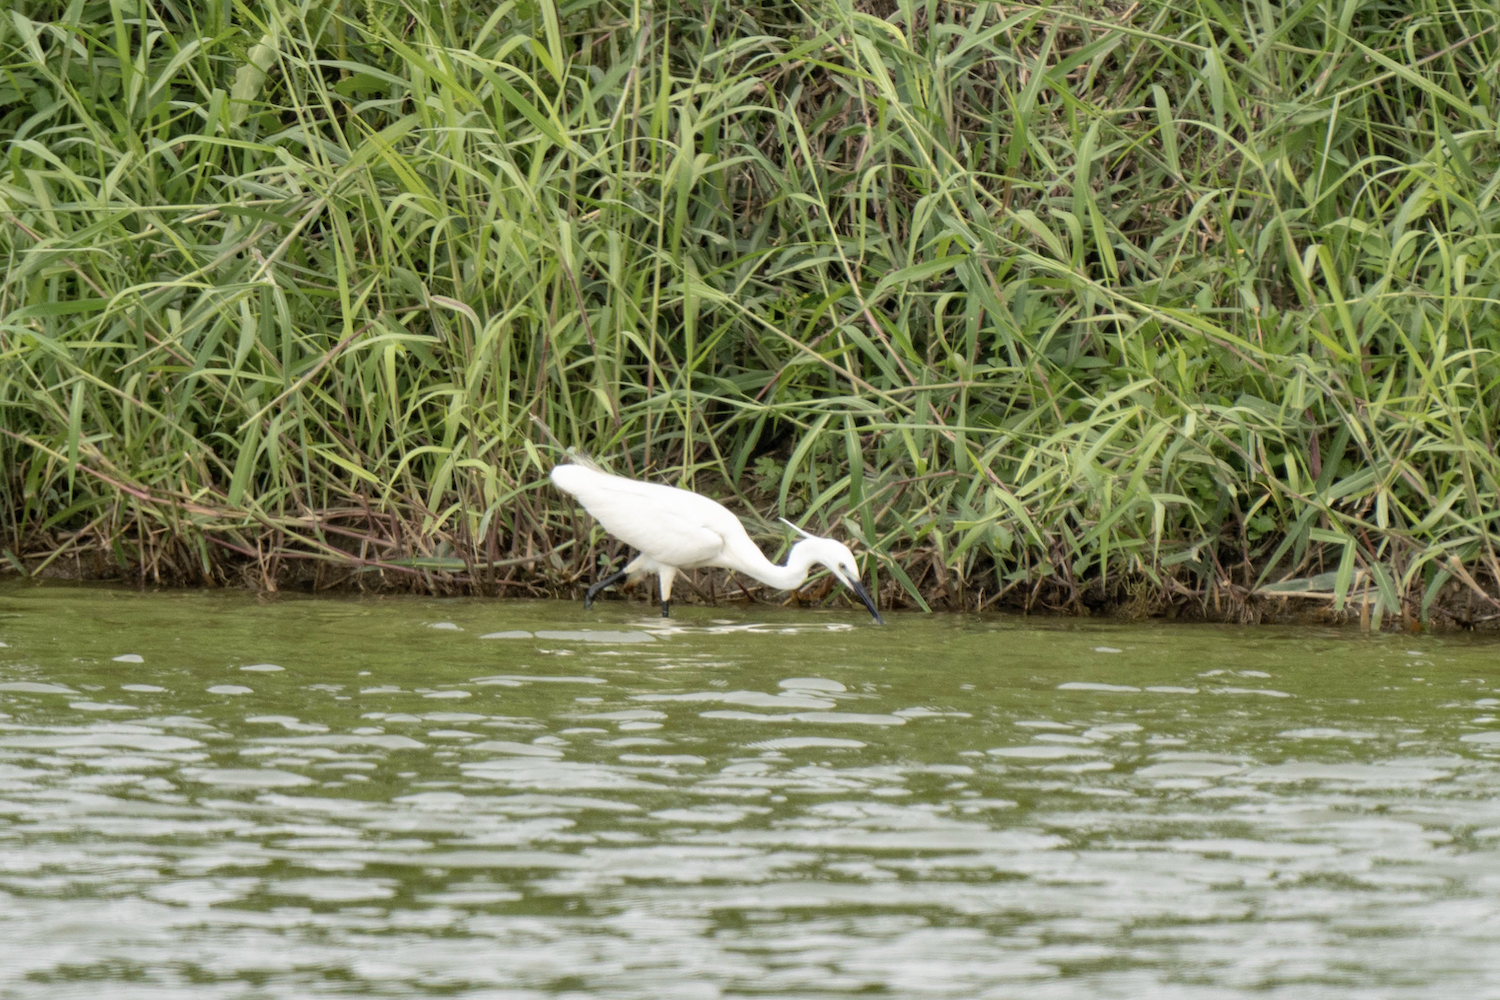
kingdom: Animalia
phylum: Chordata
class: Aves
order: Pelecaniformes
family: Ardeidae
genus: Egretta
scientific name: Egretta garzetta
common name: Little egret
